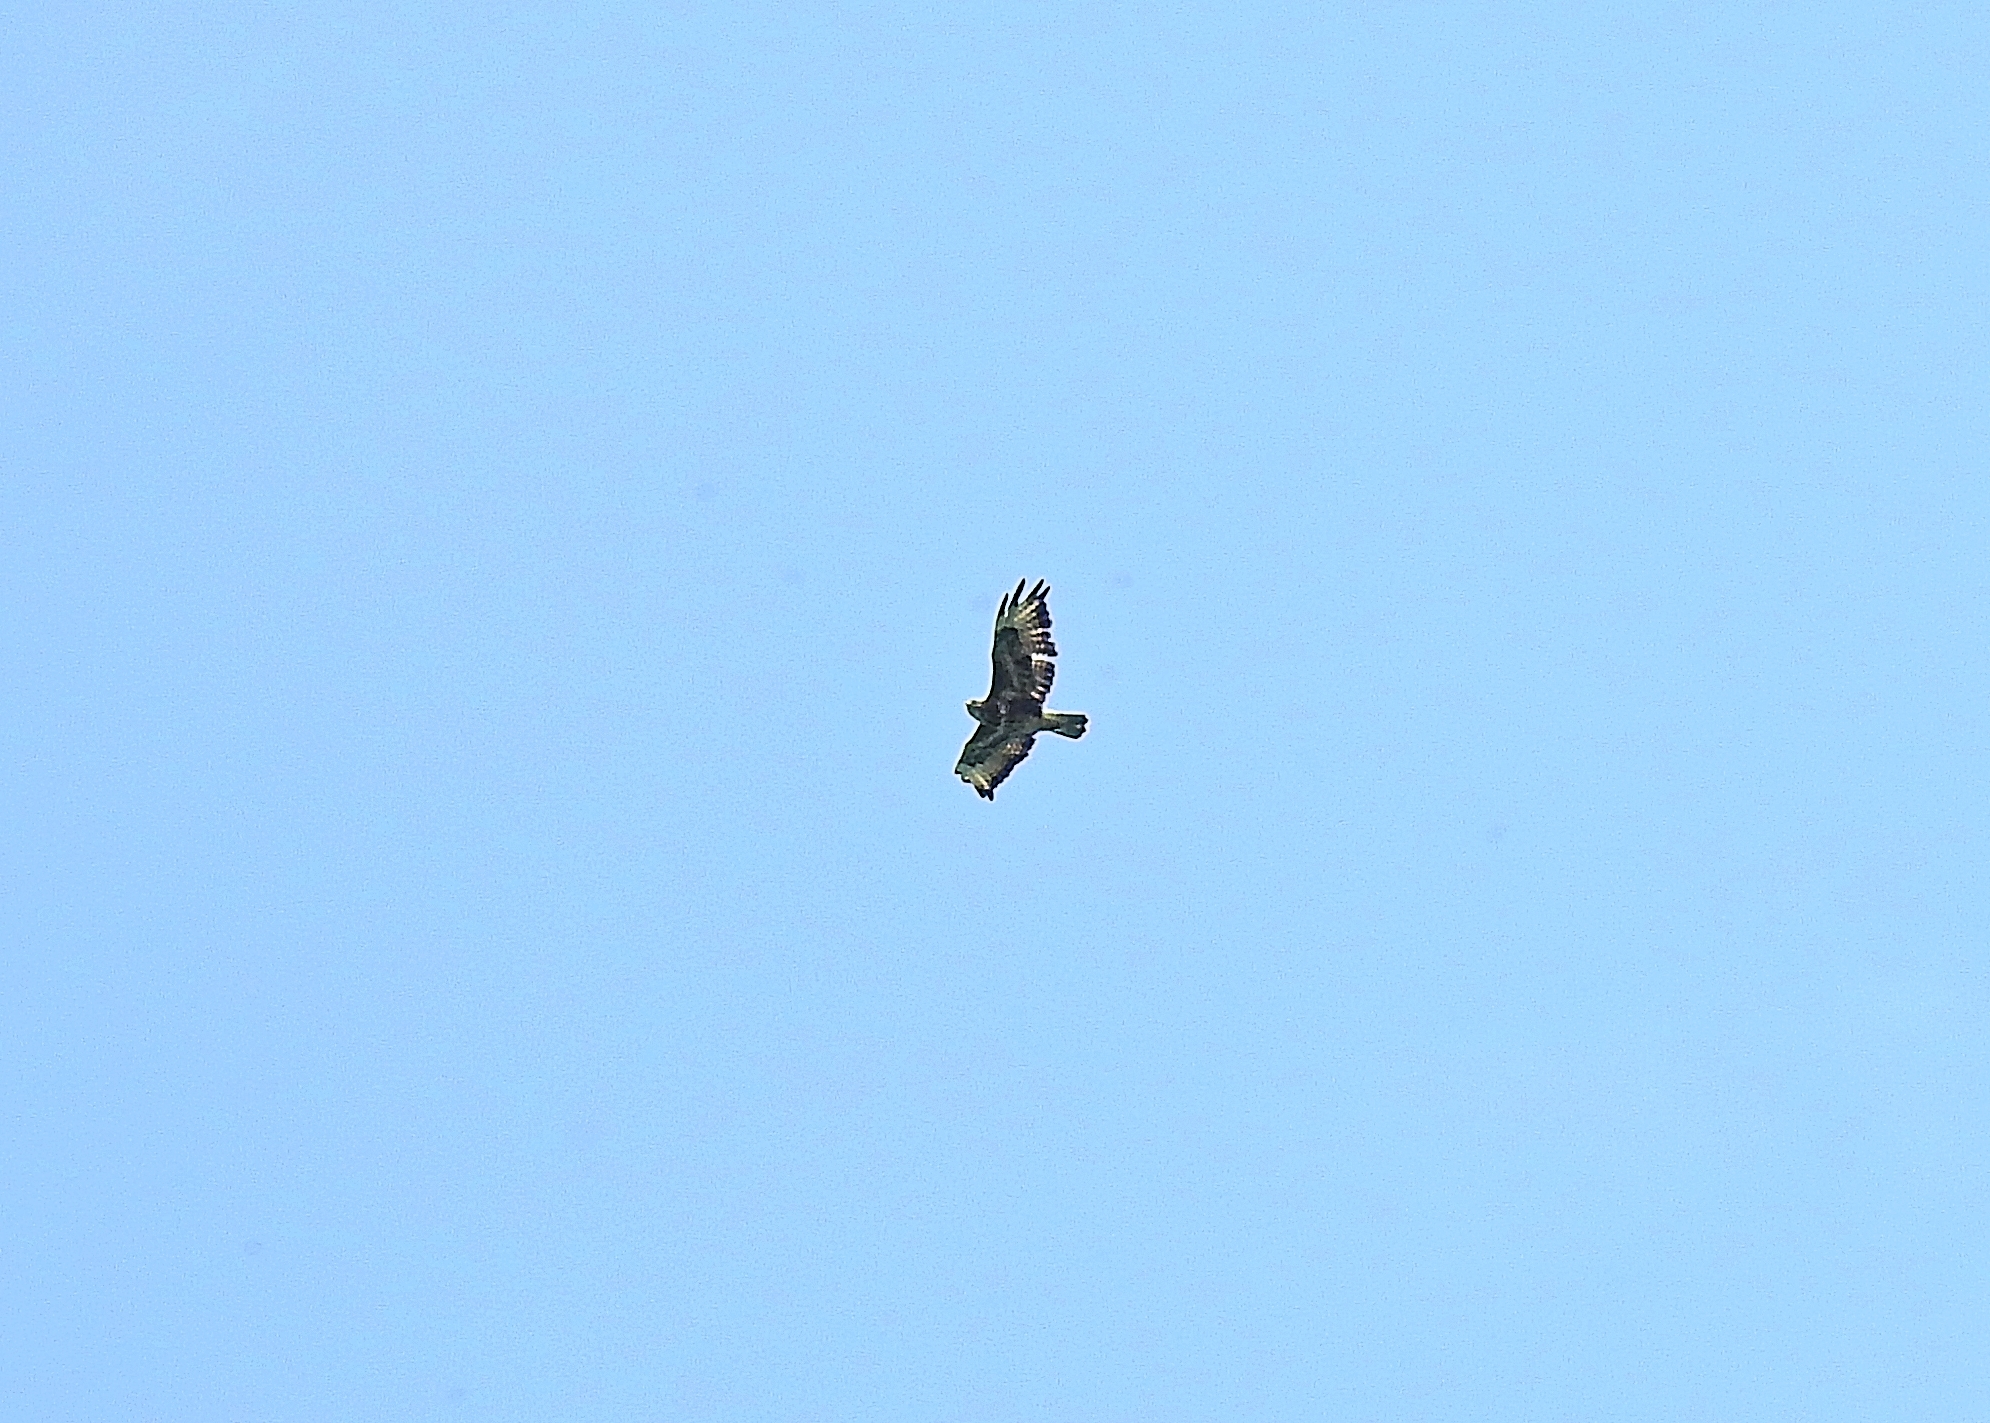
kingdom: Animalia
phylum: Chordata
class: Aves
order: Accipitriformes
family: Accipitridae
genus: Buteo
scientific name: Buteo buteo
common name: Common buzzard
